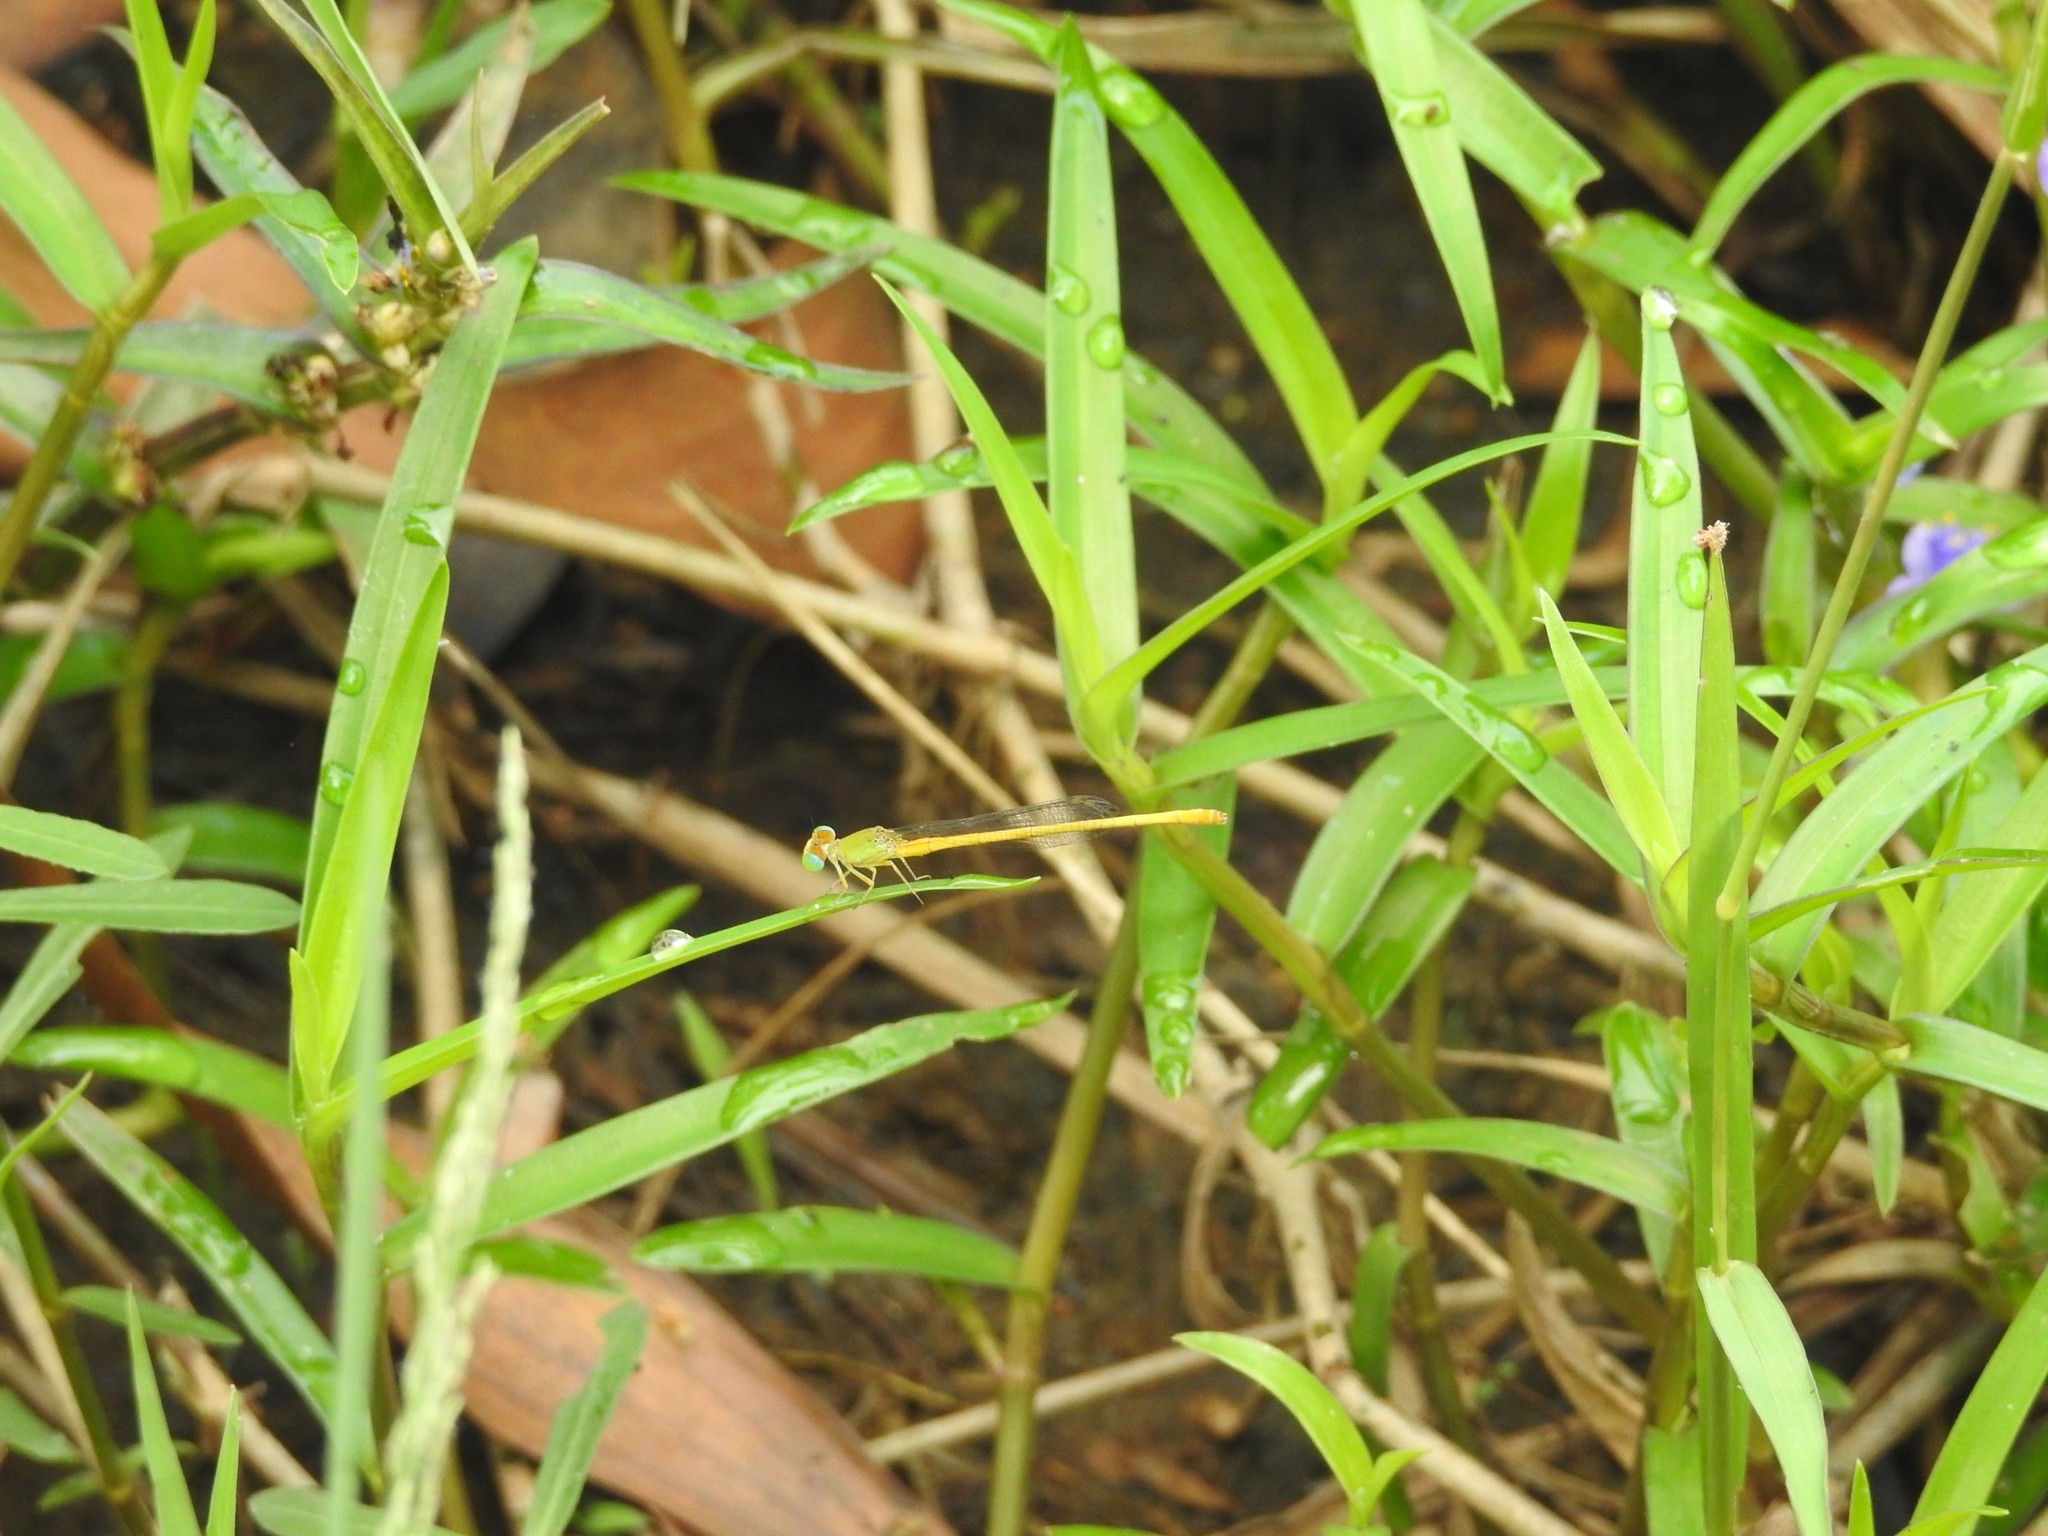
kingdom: Animalia
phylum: Arthropoda
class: Insecta
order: Odonata
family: Coenagrionidae
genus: Ceriagrion
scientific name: Ceriagrion coromandelianum
